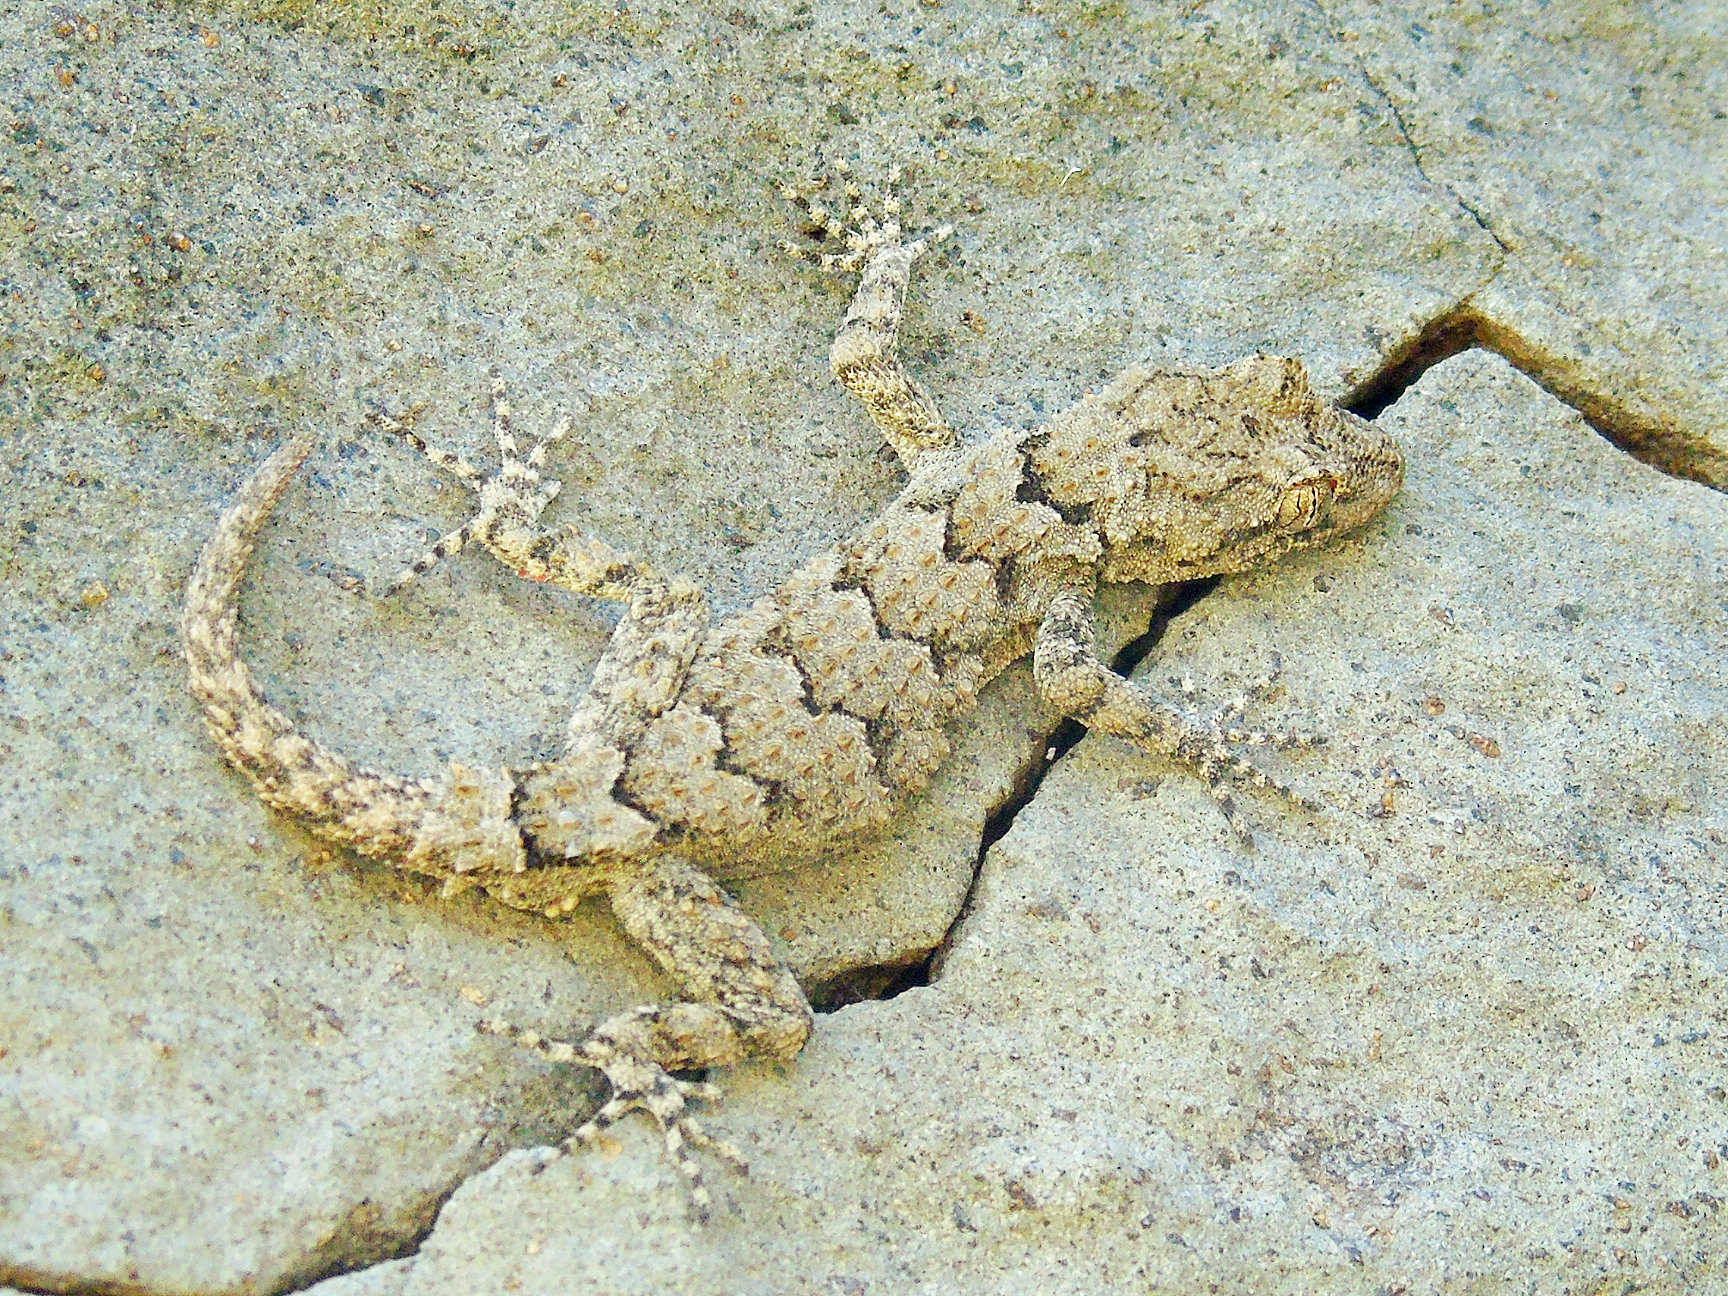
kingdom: Animalia
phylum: Chordata
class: Squamata
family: Gekkonidae
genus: Mediodactylus
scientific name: Mediodactylus heterocercus
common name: Asia minor thin-toed gecko
